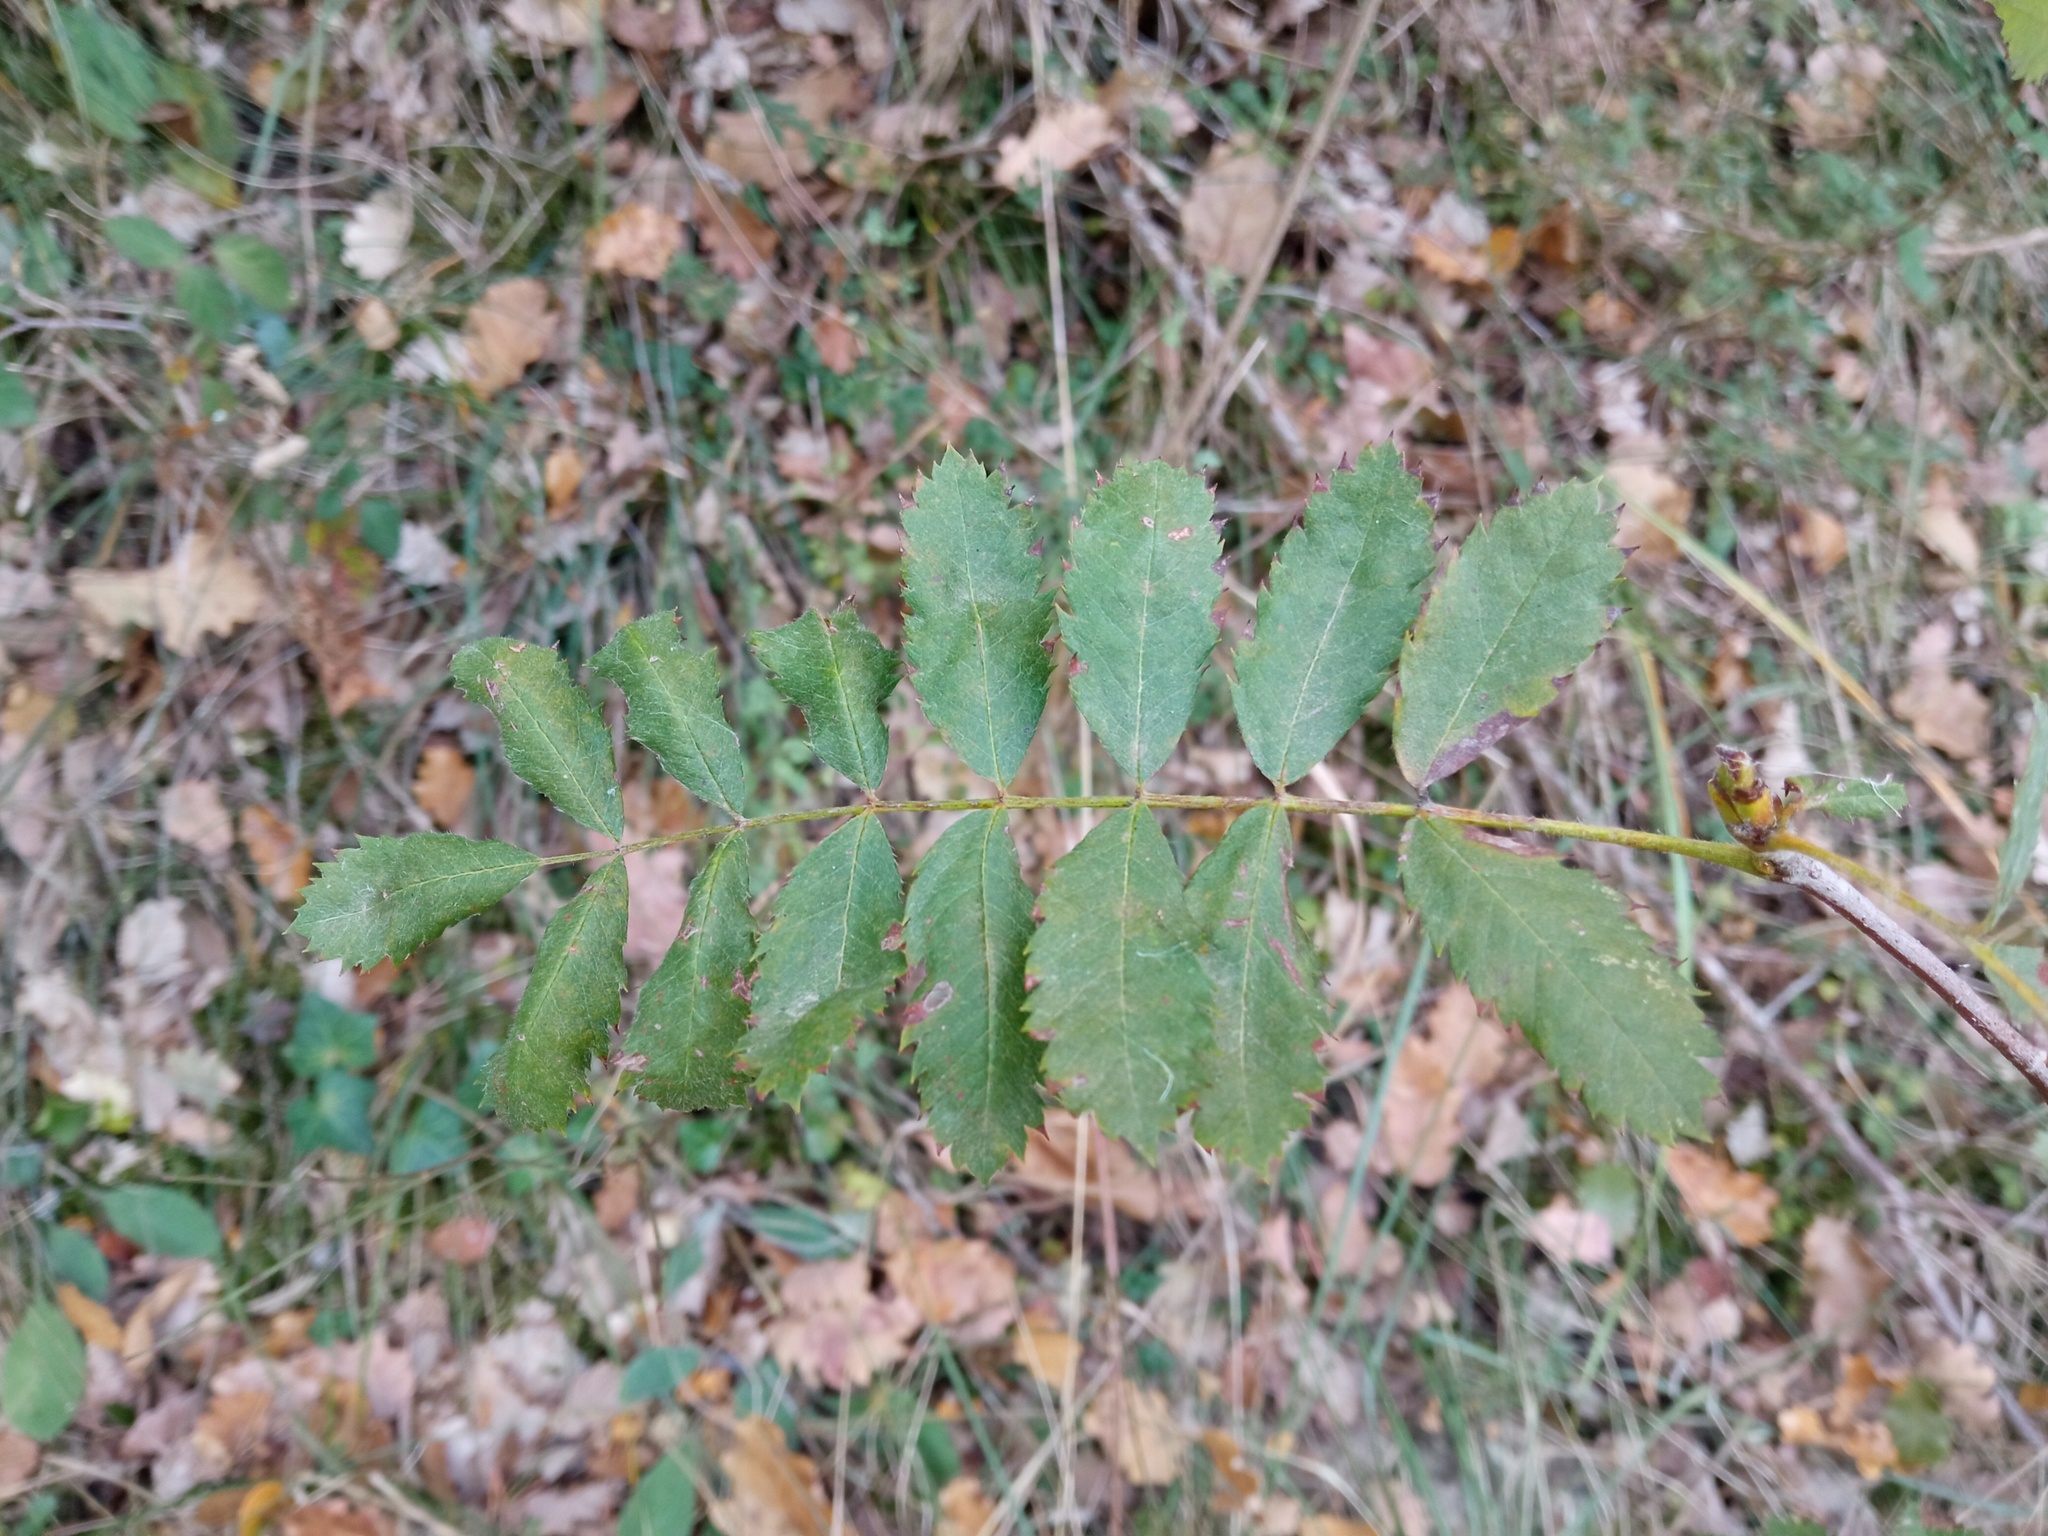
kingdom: Plantae
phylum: Tracheophyta
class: Magnoliopsida
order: Rosales
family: Rosaceae
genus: Cormus
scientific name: Cormus domestica
